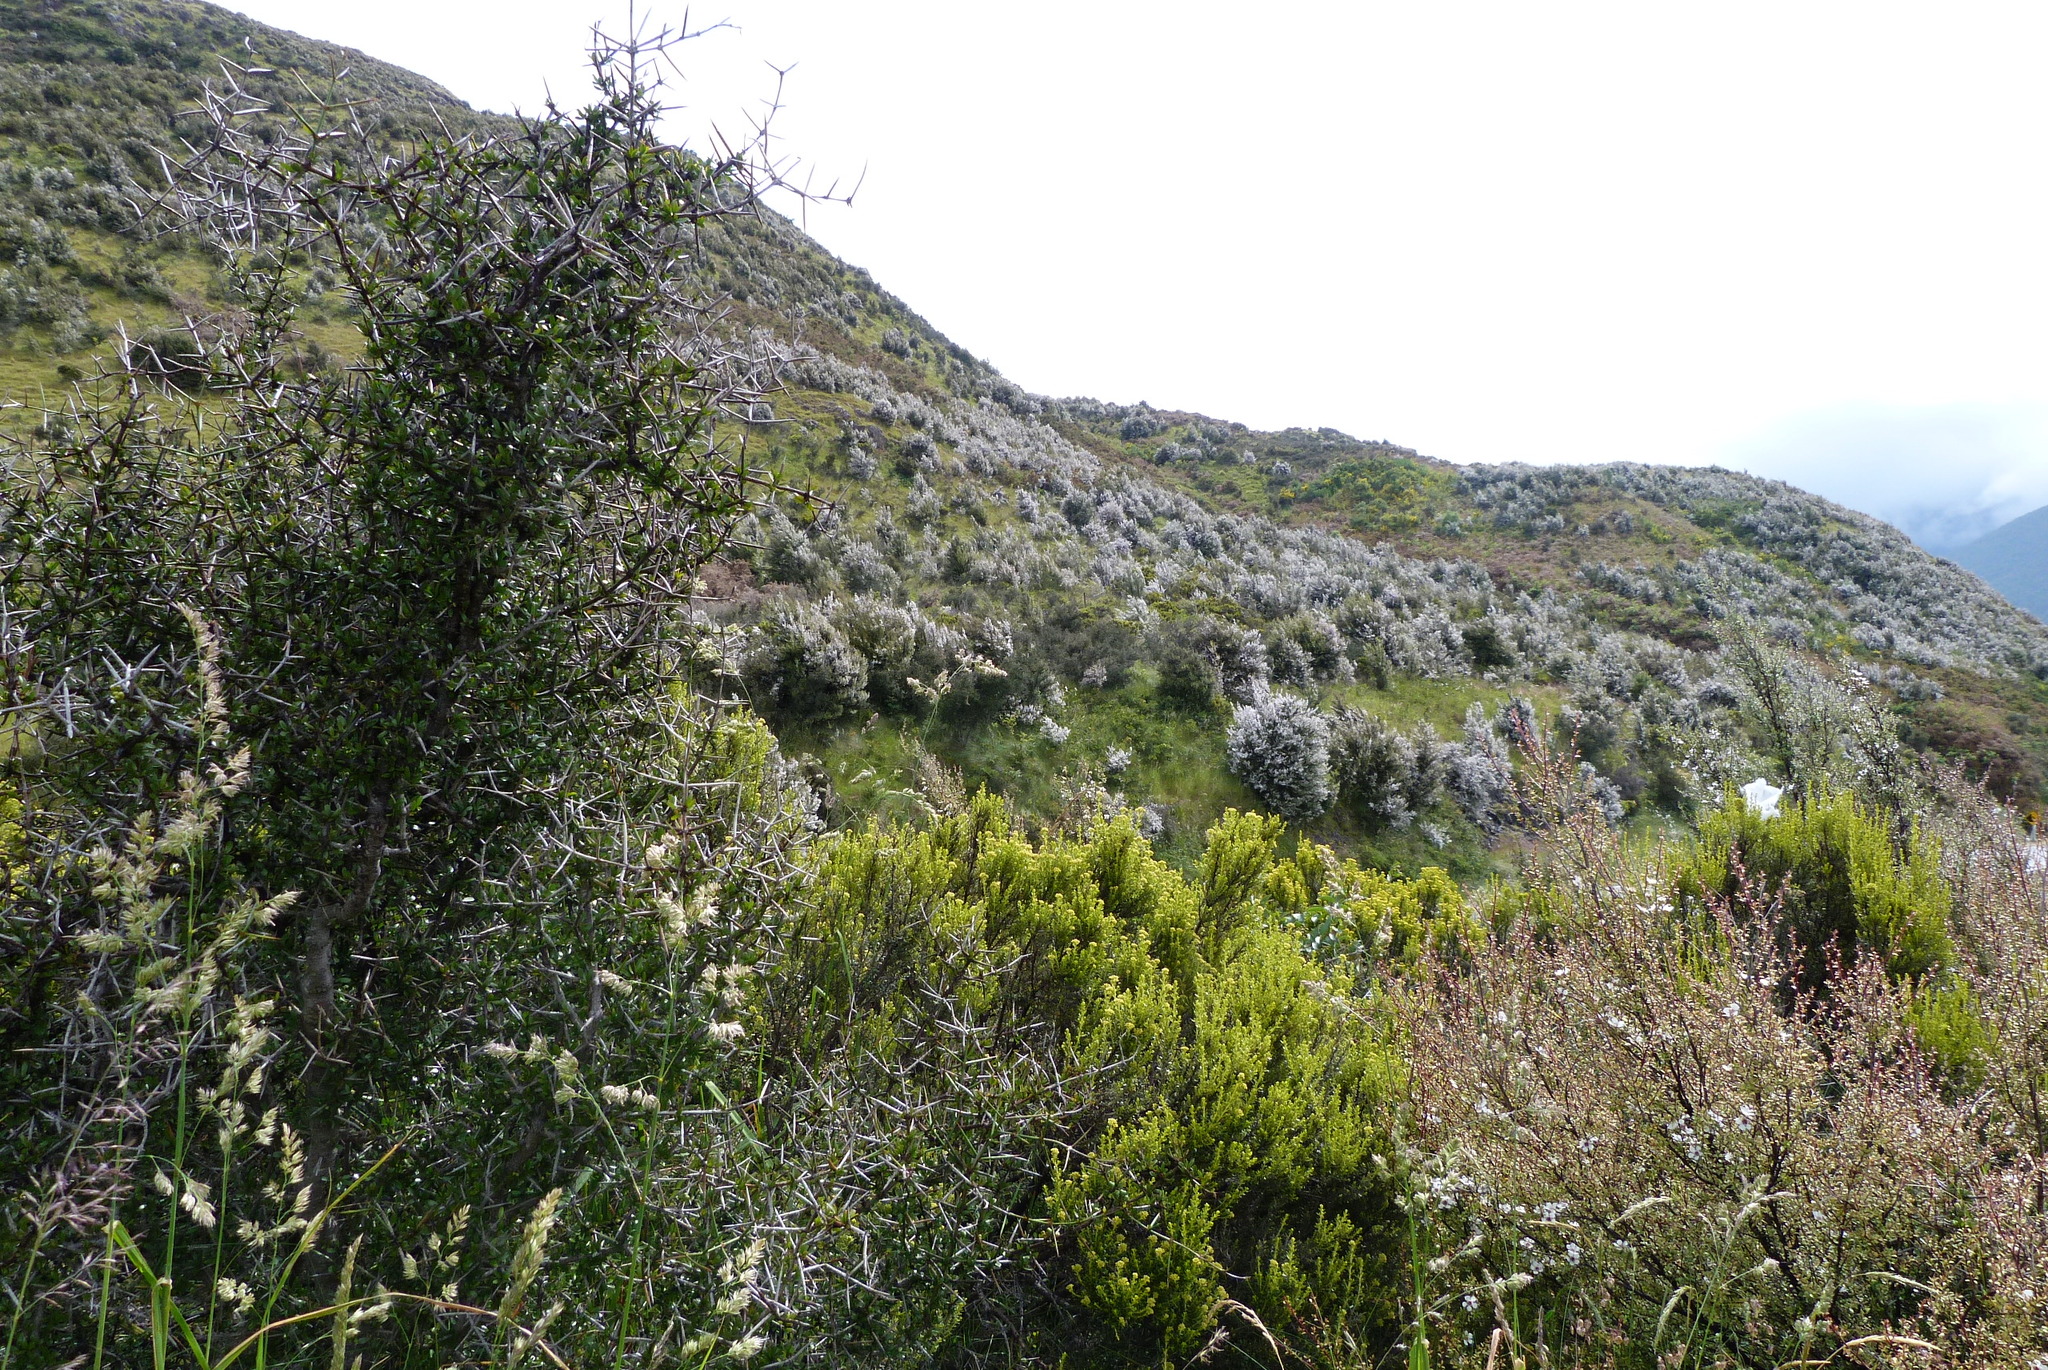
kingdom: Plantae
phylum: Tracheophyta
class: Magnoliopsida
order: Myrtales
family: Myrtaceae
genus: Leptospermum
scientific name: Leptospermum scoparium
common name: Broom tea-tree
